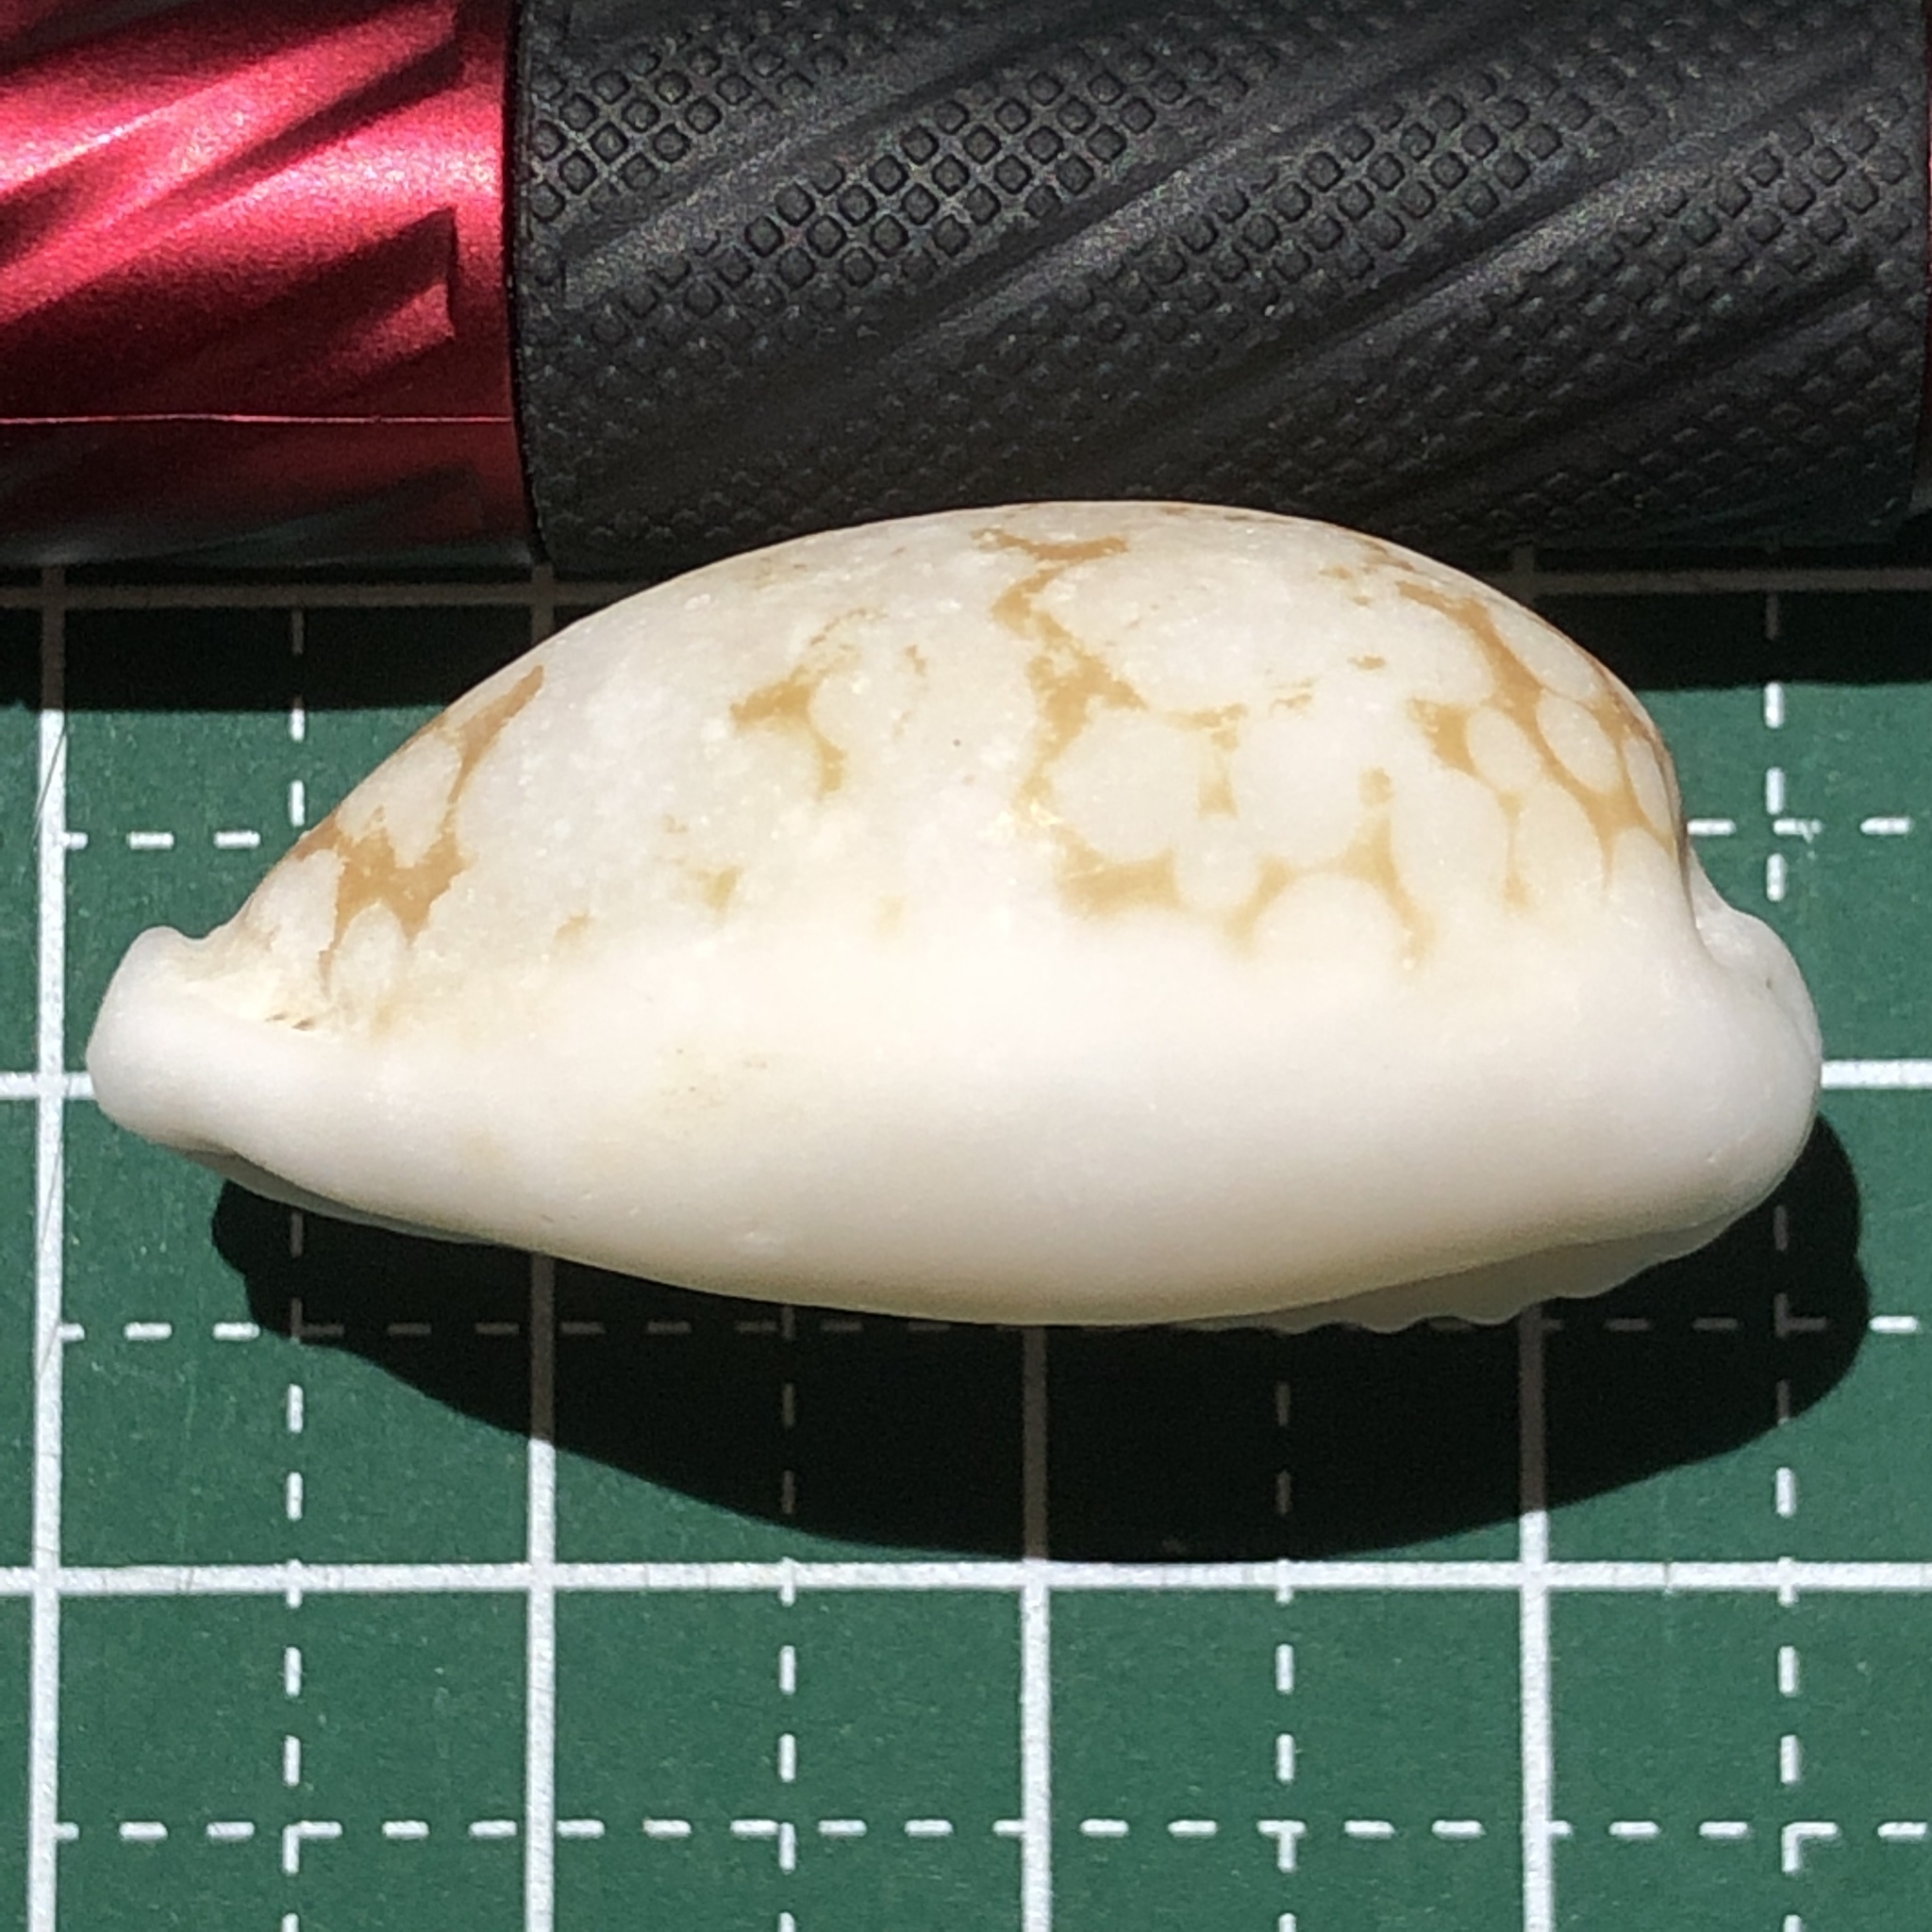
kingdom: Animalia
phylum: Mollusca
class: Gastropoda
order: Littorinimorpha
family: Cypraeidae
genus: Cribrarula
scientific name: Cribrarula cribraria
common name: Sieve cowrie
